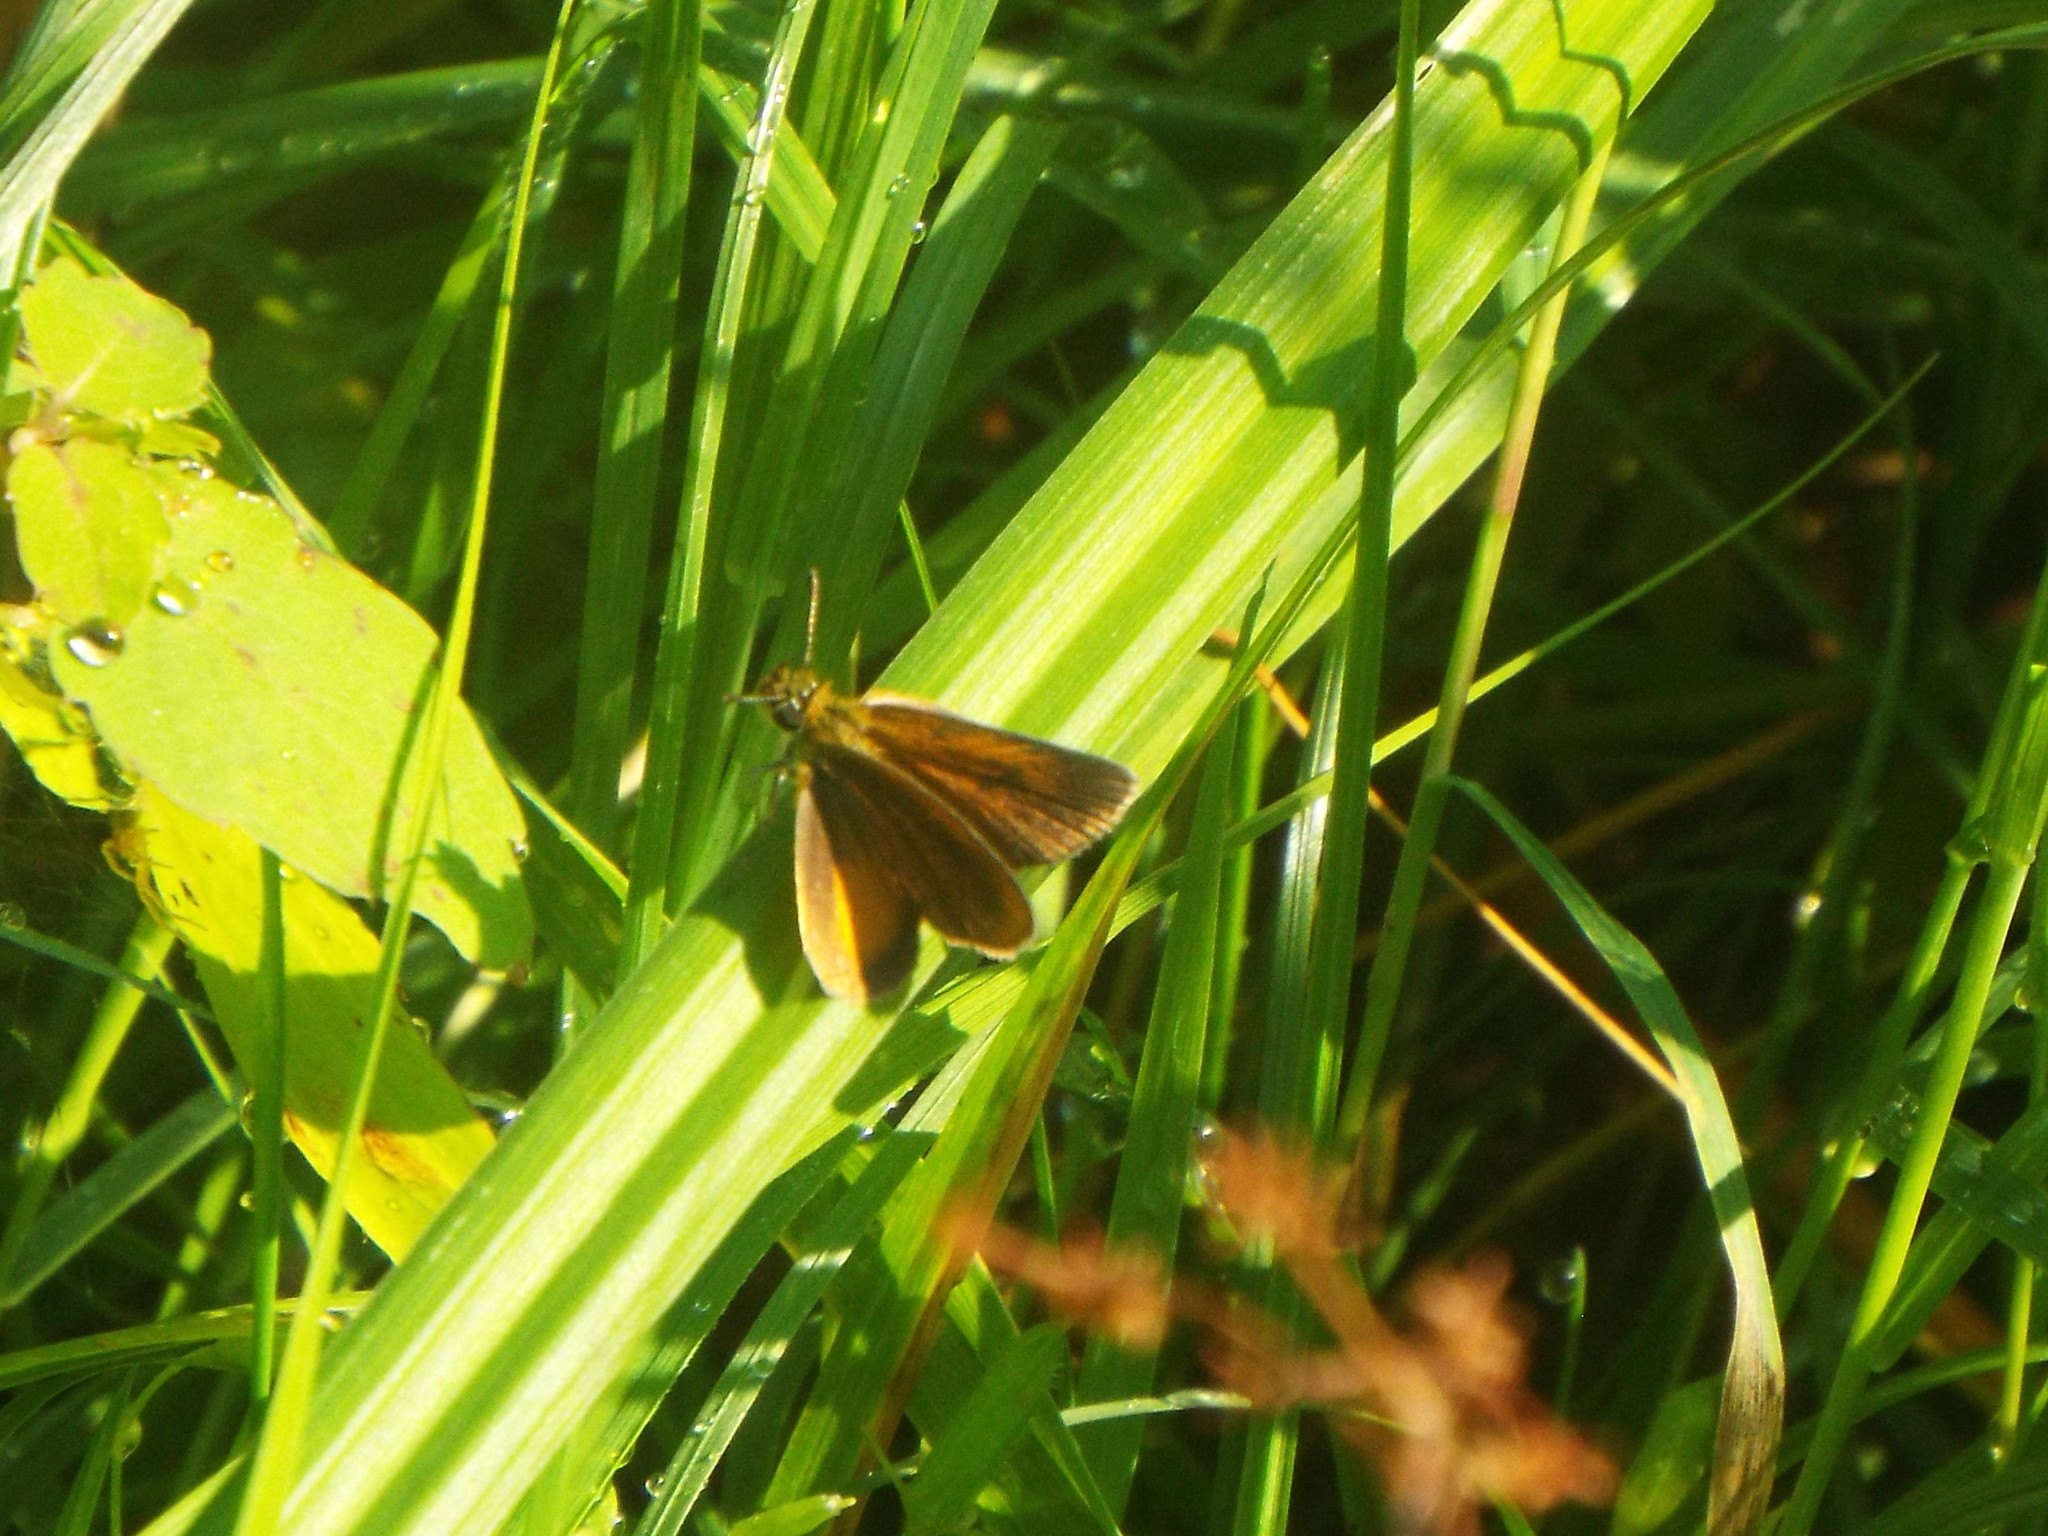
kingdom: Animalia
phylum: Arthropoda
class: Insecta
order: Lepidoptera
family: Hesperiidae
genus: Ancyloxypha
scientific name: Ancyloxypha numitor
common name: Least skipper
